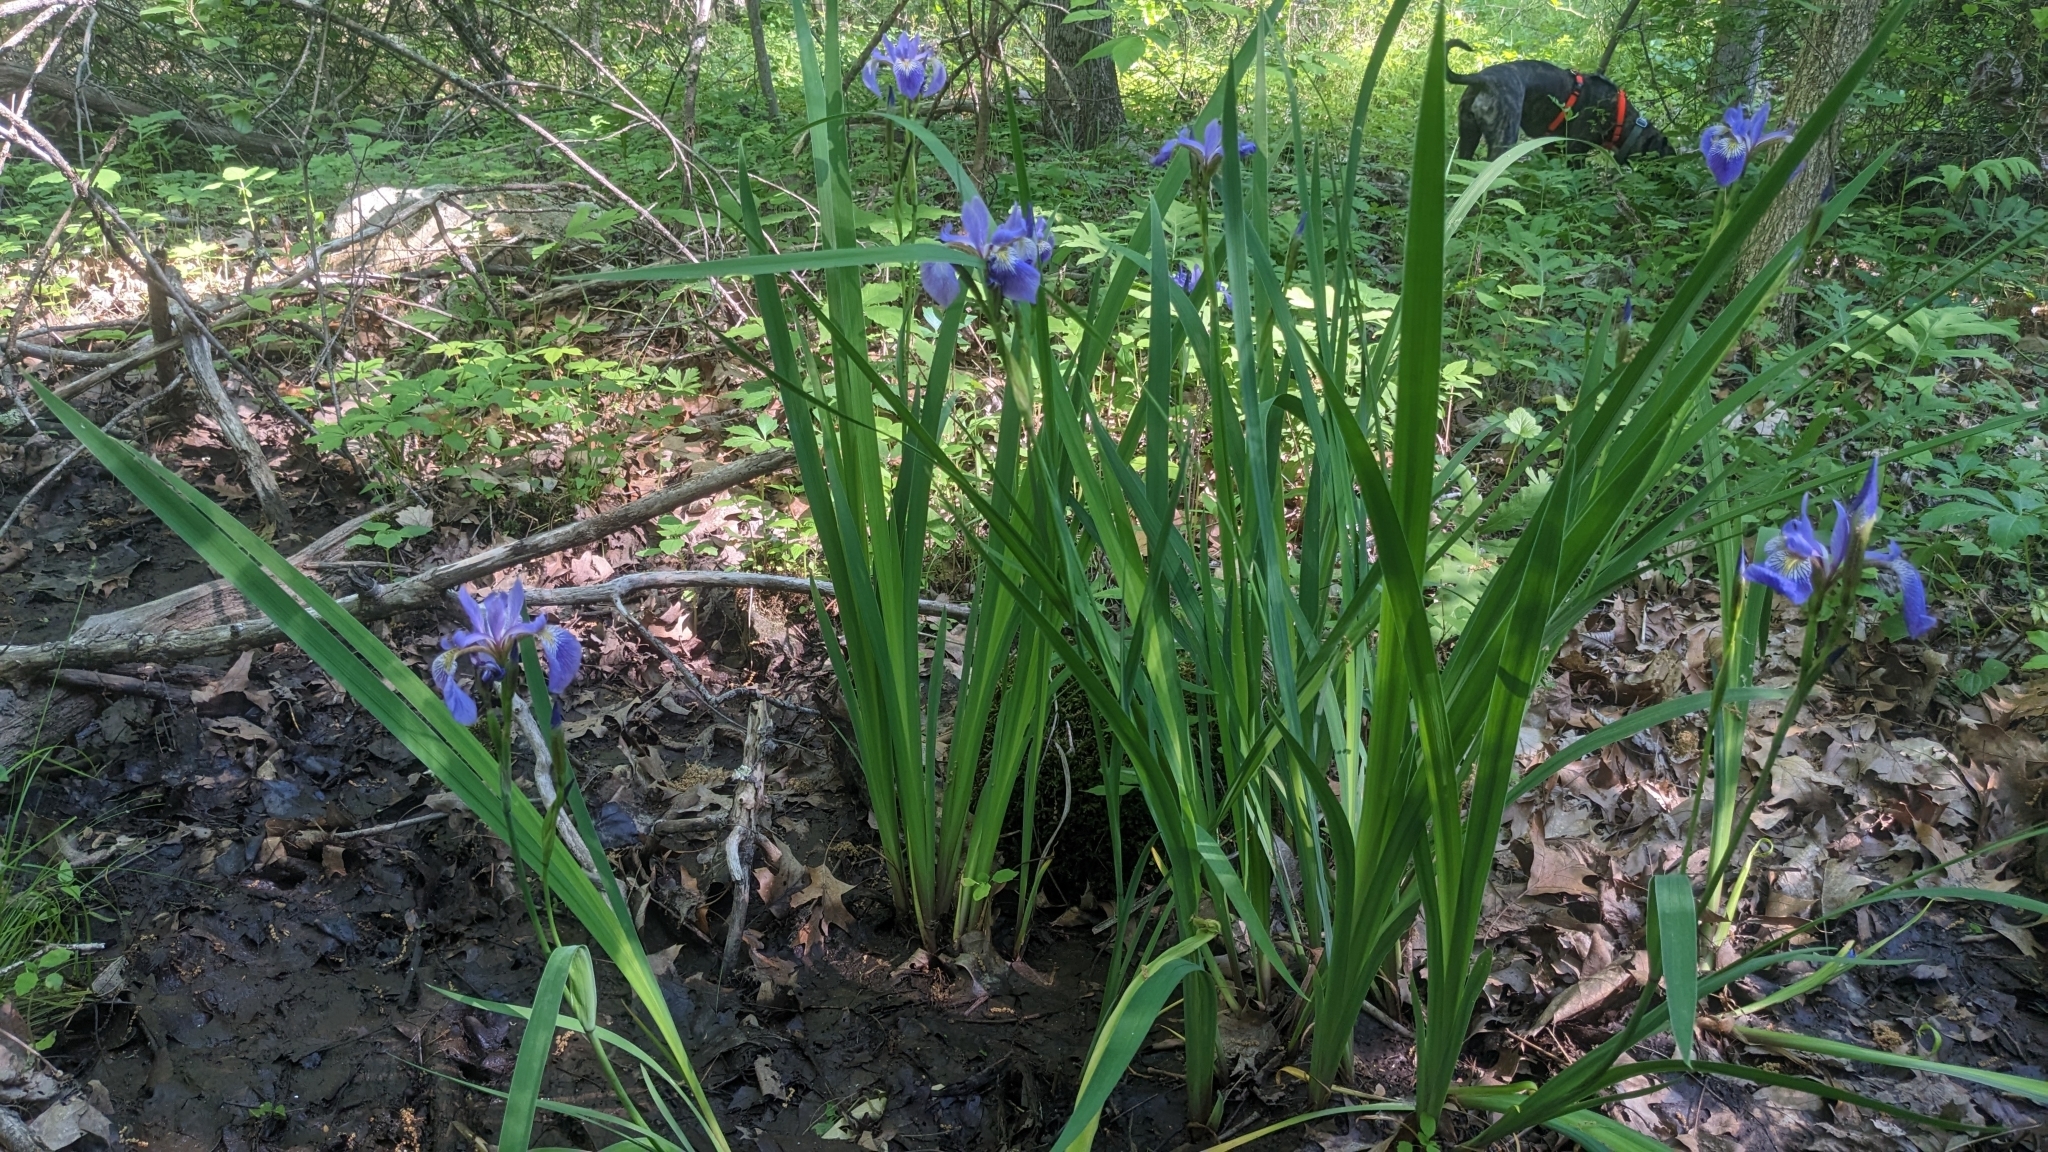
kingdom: Plantae
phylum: Tracheophyta
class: Liliopsida
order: Asparagales
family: Iridaceae
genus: Iris
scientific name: Iris versicolor
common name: Purple iris
